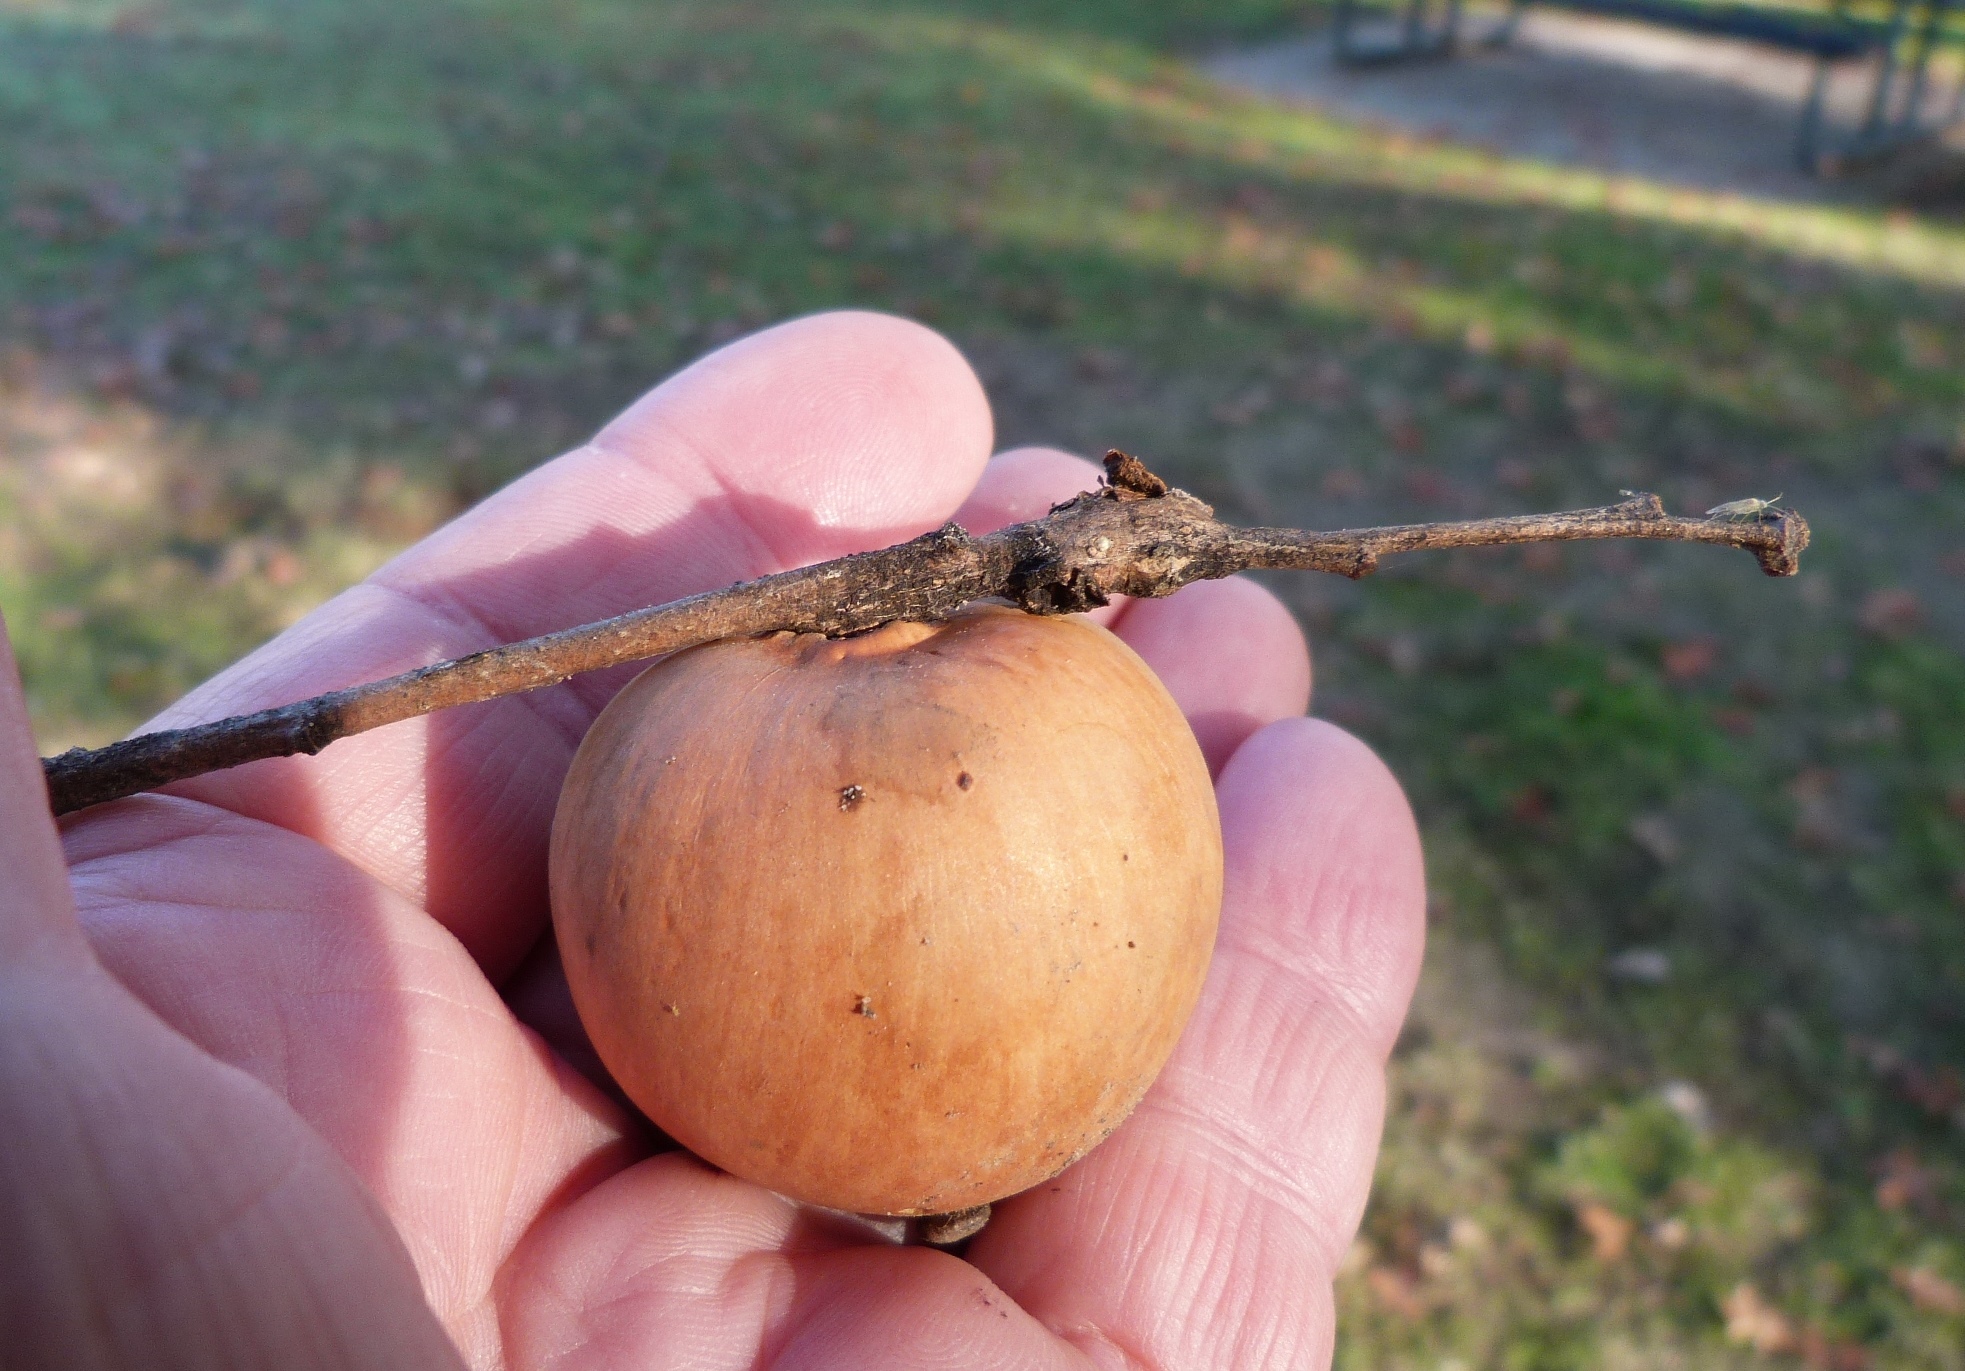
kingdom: Animalia
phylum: Arthropoda
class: Insecta
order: Hymenoptera
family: Cynipidae
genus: Andricus
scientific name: Andricus quercuscalifornicus
